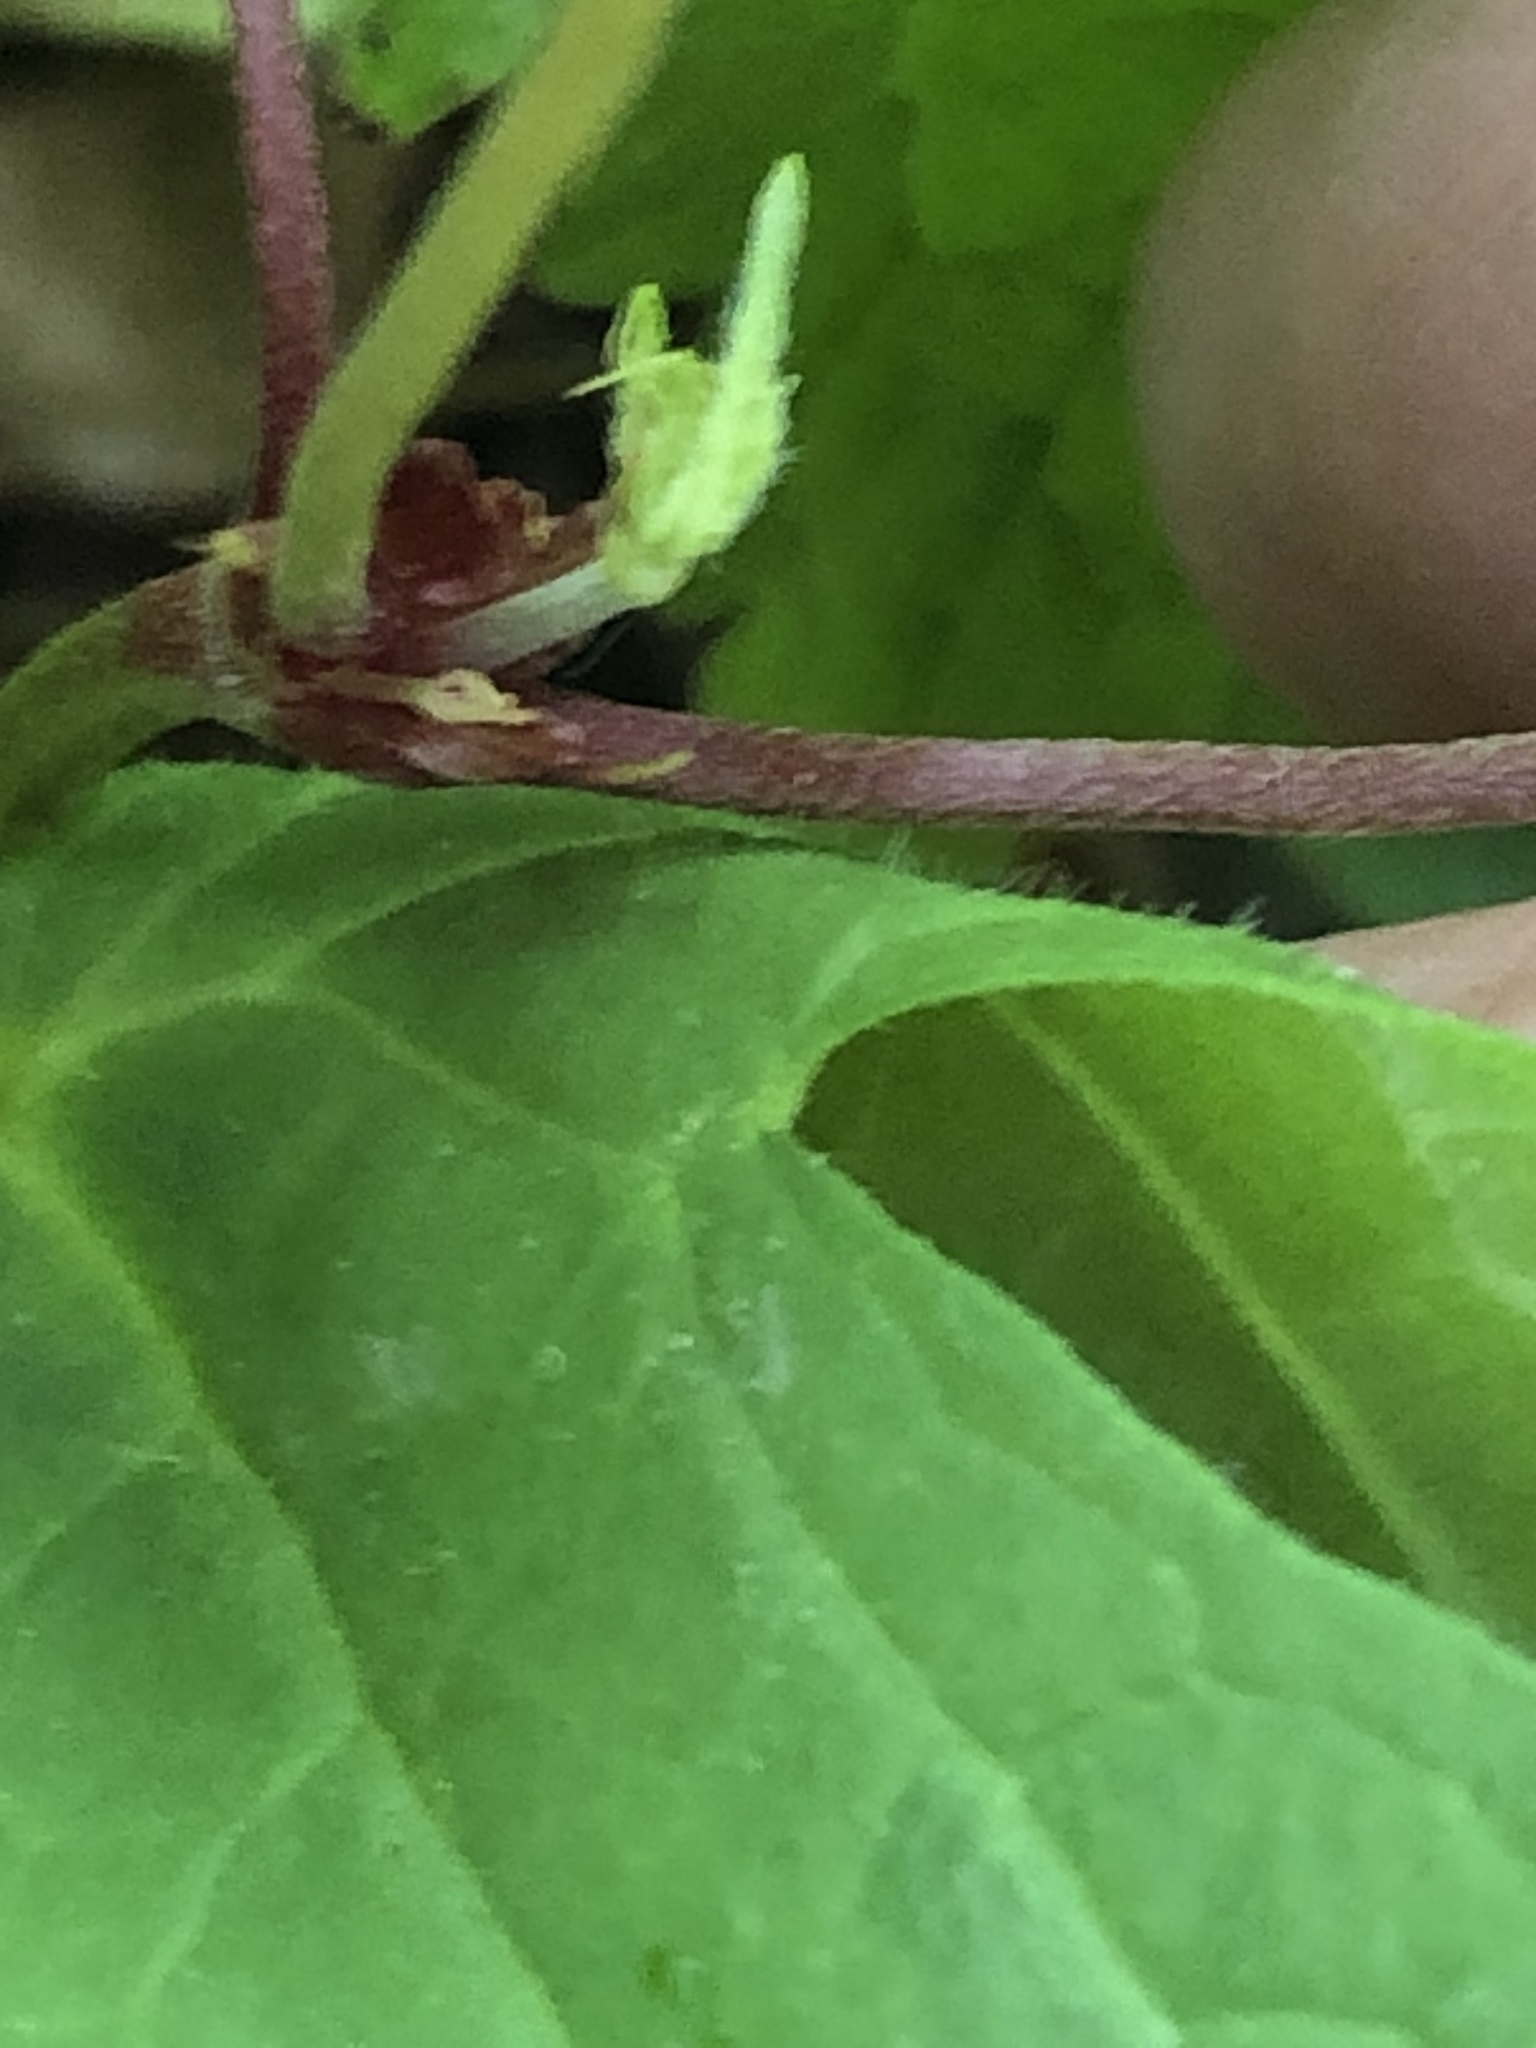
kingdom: Plantae
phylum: Tracheophyta
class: Magnoliopsida
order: Geraniales
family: Geraniaceae
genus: Geranium
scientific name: Geranium nodosum
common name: Knotted crane's-bill
